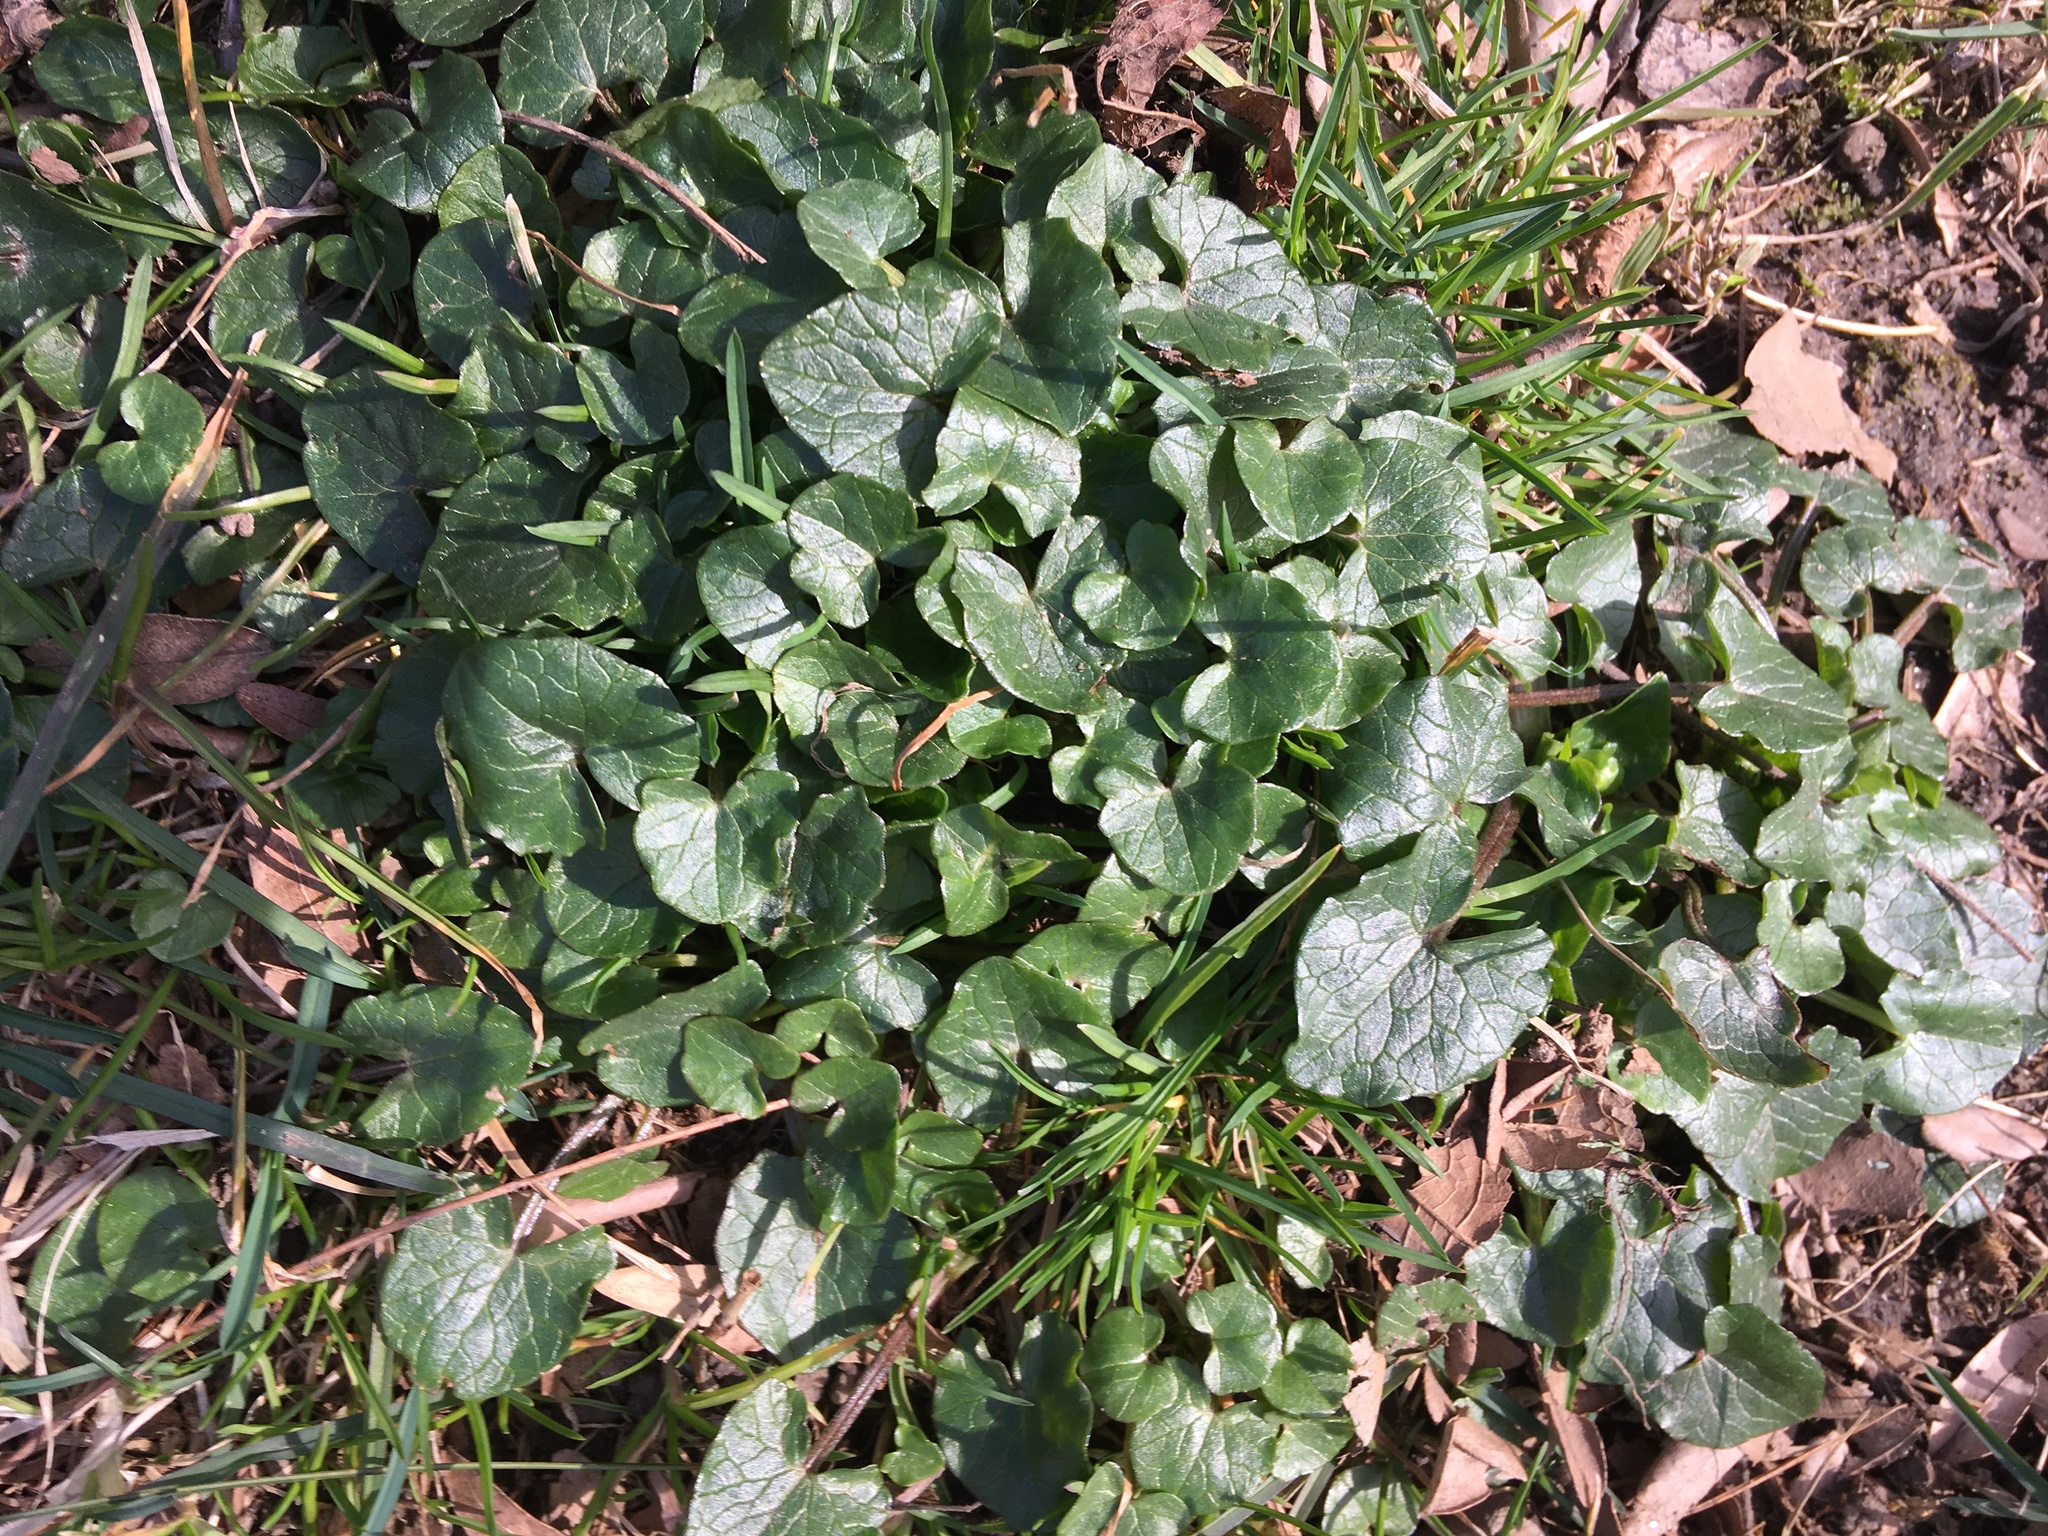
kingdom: Plantae
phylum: Tracheophyta
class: Magnoliopsida
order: Ranunculales
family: Ranunculaceae
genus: Ficaria
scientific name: Ficaria verna
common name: Lesser celandine
